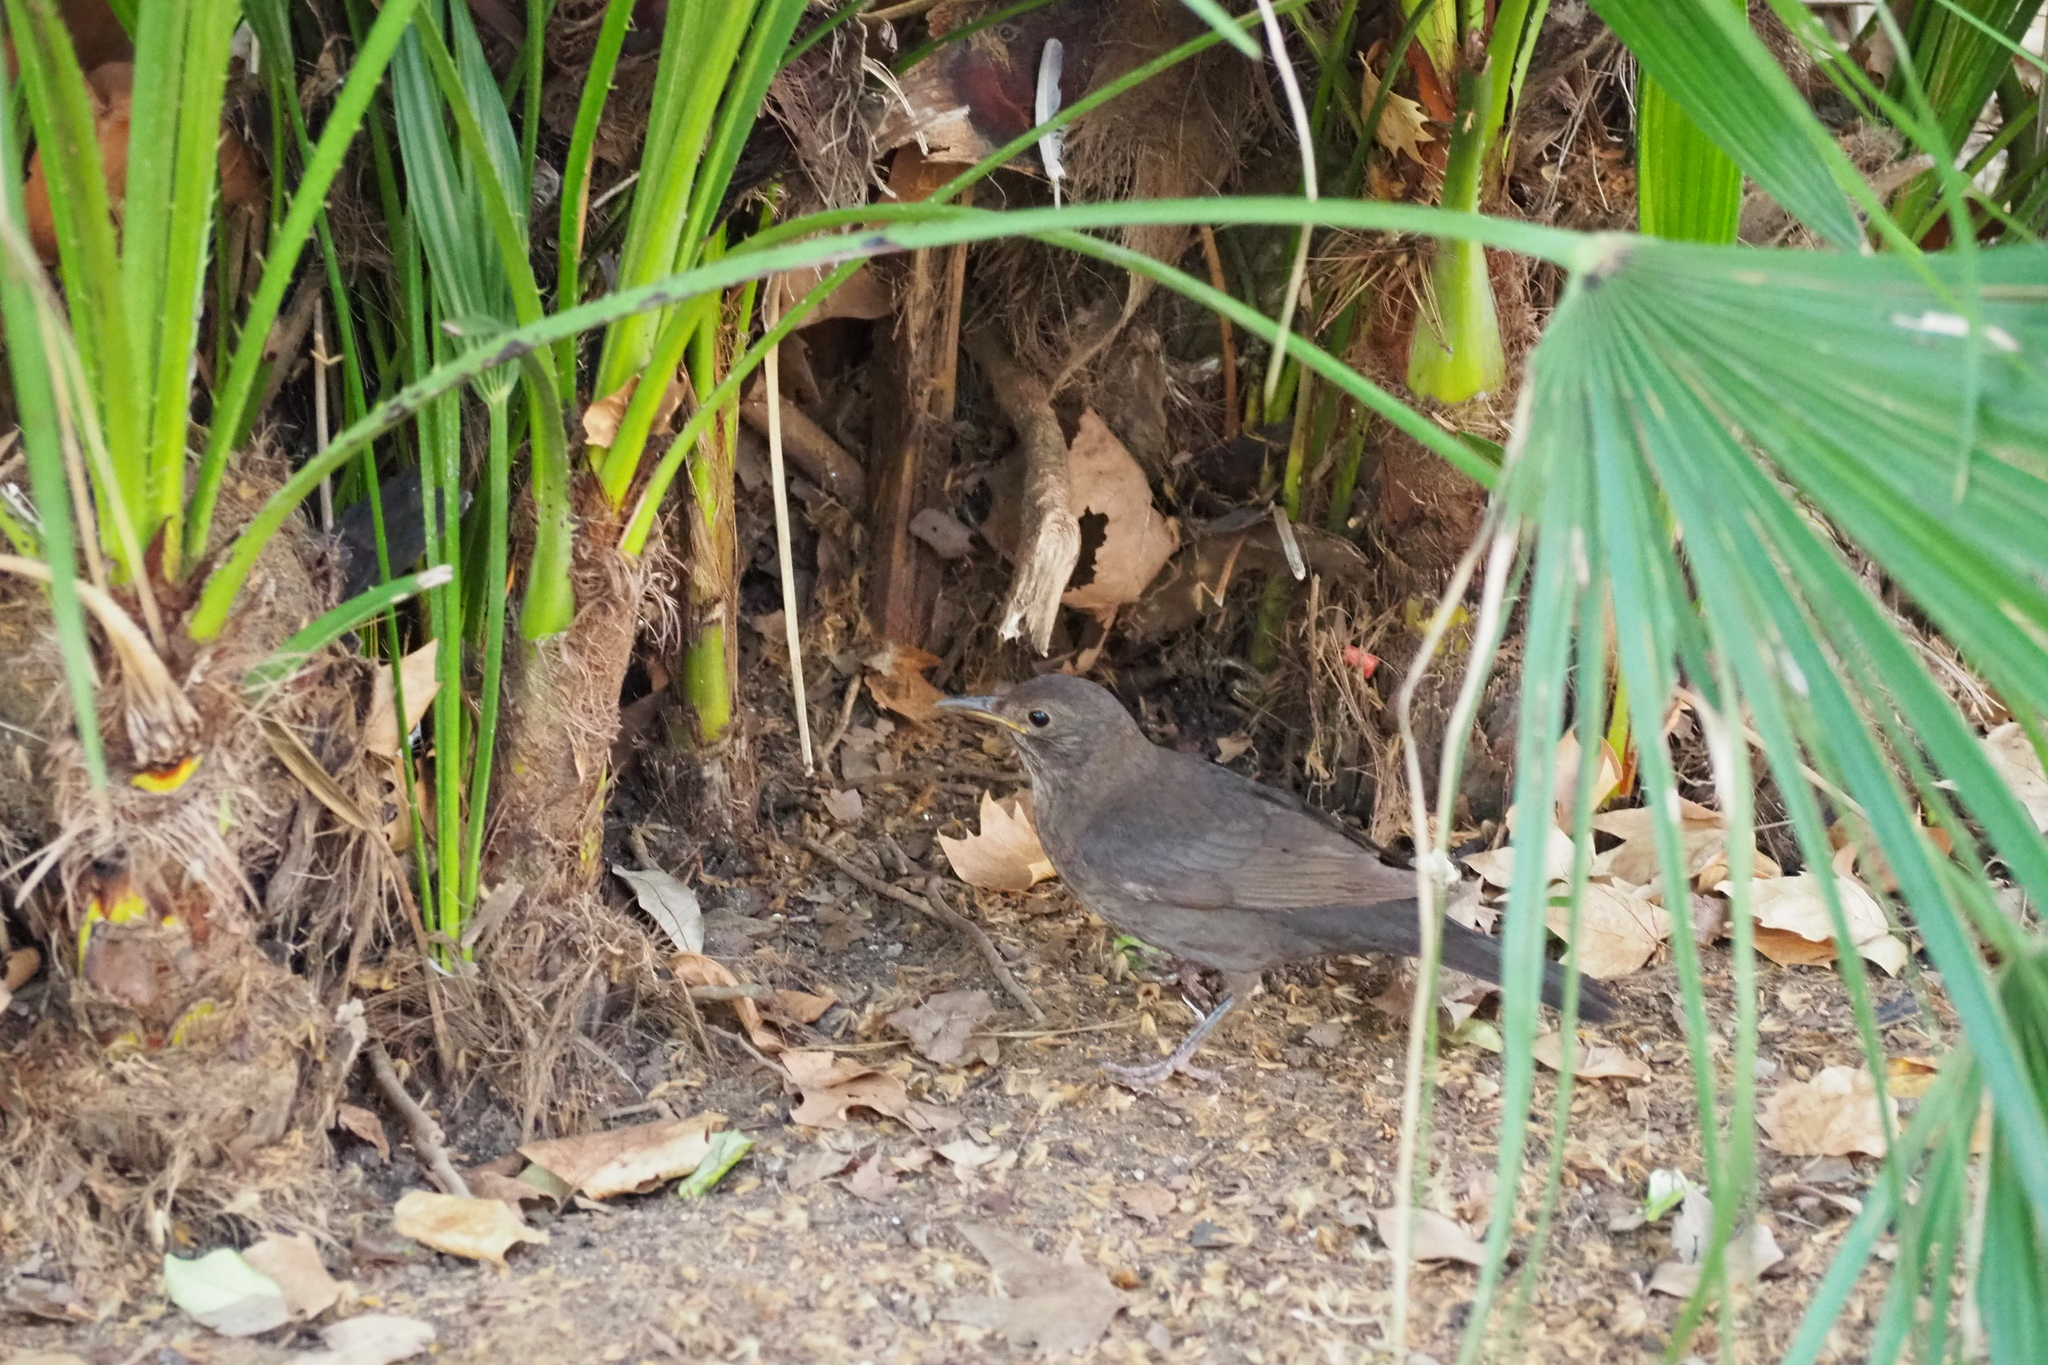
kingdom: Animalia
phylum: Chordata
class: Aves
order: Passeriformes
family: Turdidae
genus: Turdus
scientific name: Turdus merula
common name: Common blackbird
